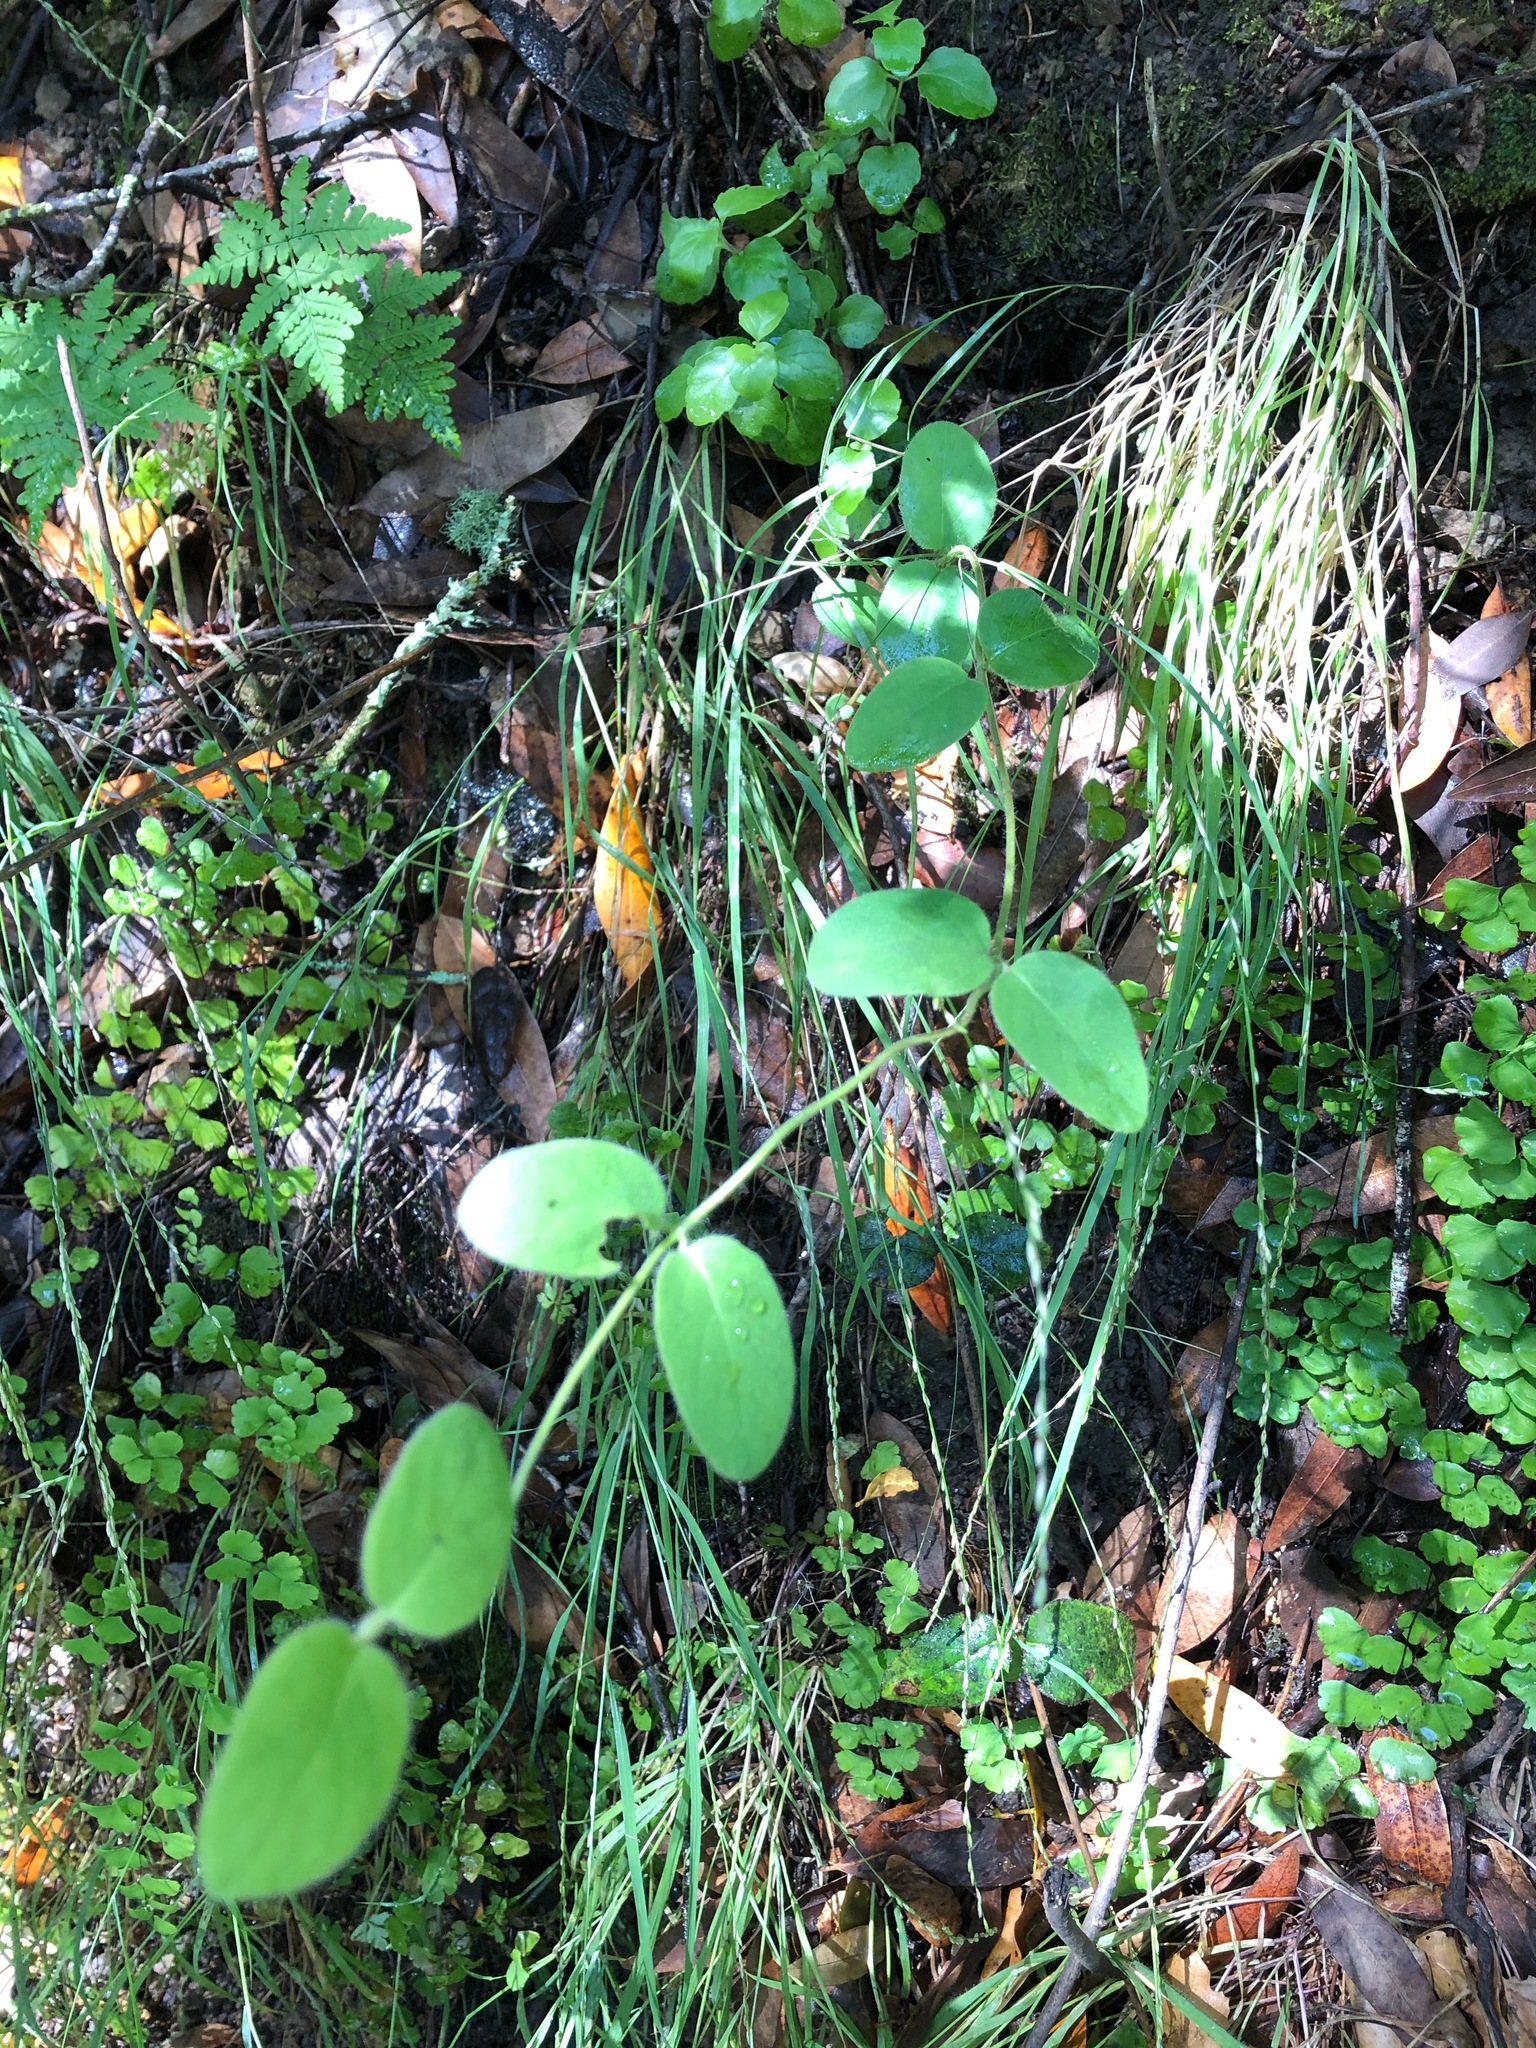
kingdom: Plantae
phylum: Tracheophyta
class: Magnoliopsida
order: Dipsacales
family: Caprifoliaceae
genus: Lonicera
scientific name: Lonicera hispidula
